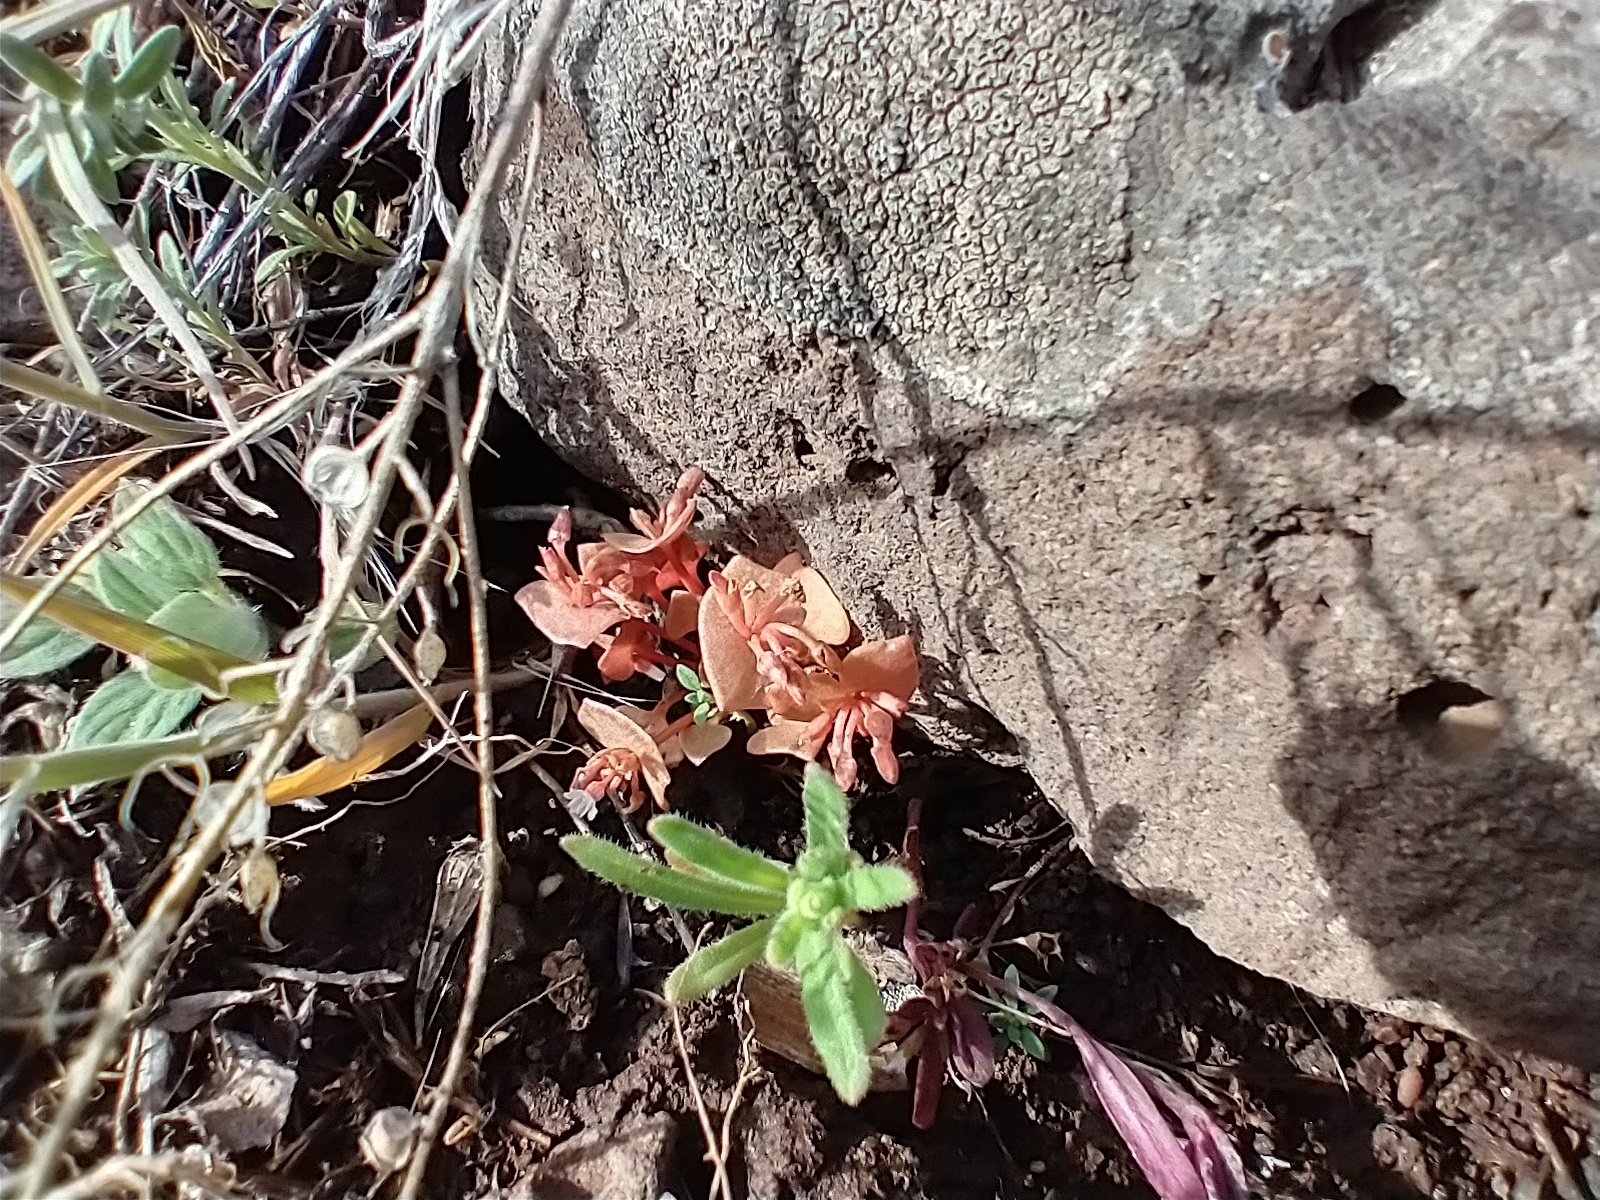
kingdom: Plantae
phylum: Tracheophyta
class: Magnoliopsida
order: Caryophyllales
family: Montiaceae
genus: Claytonia
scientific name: Claytonia rubra
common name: Erubescent miner's-lettuce
